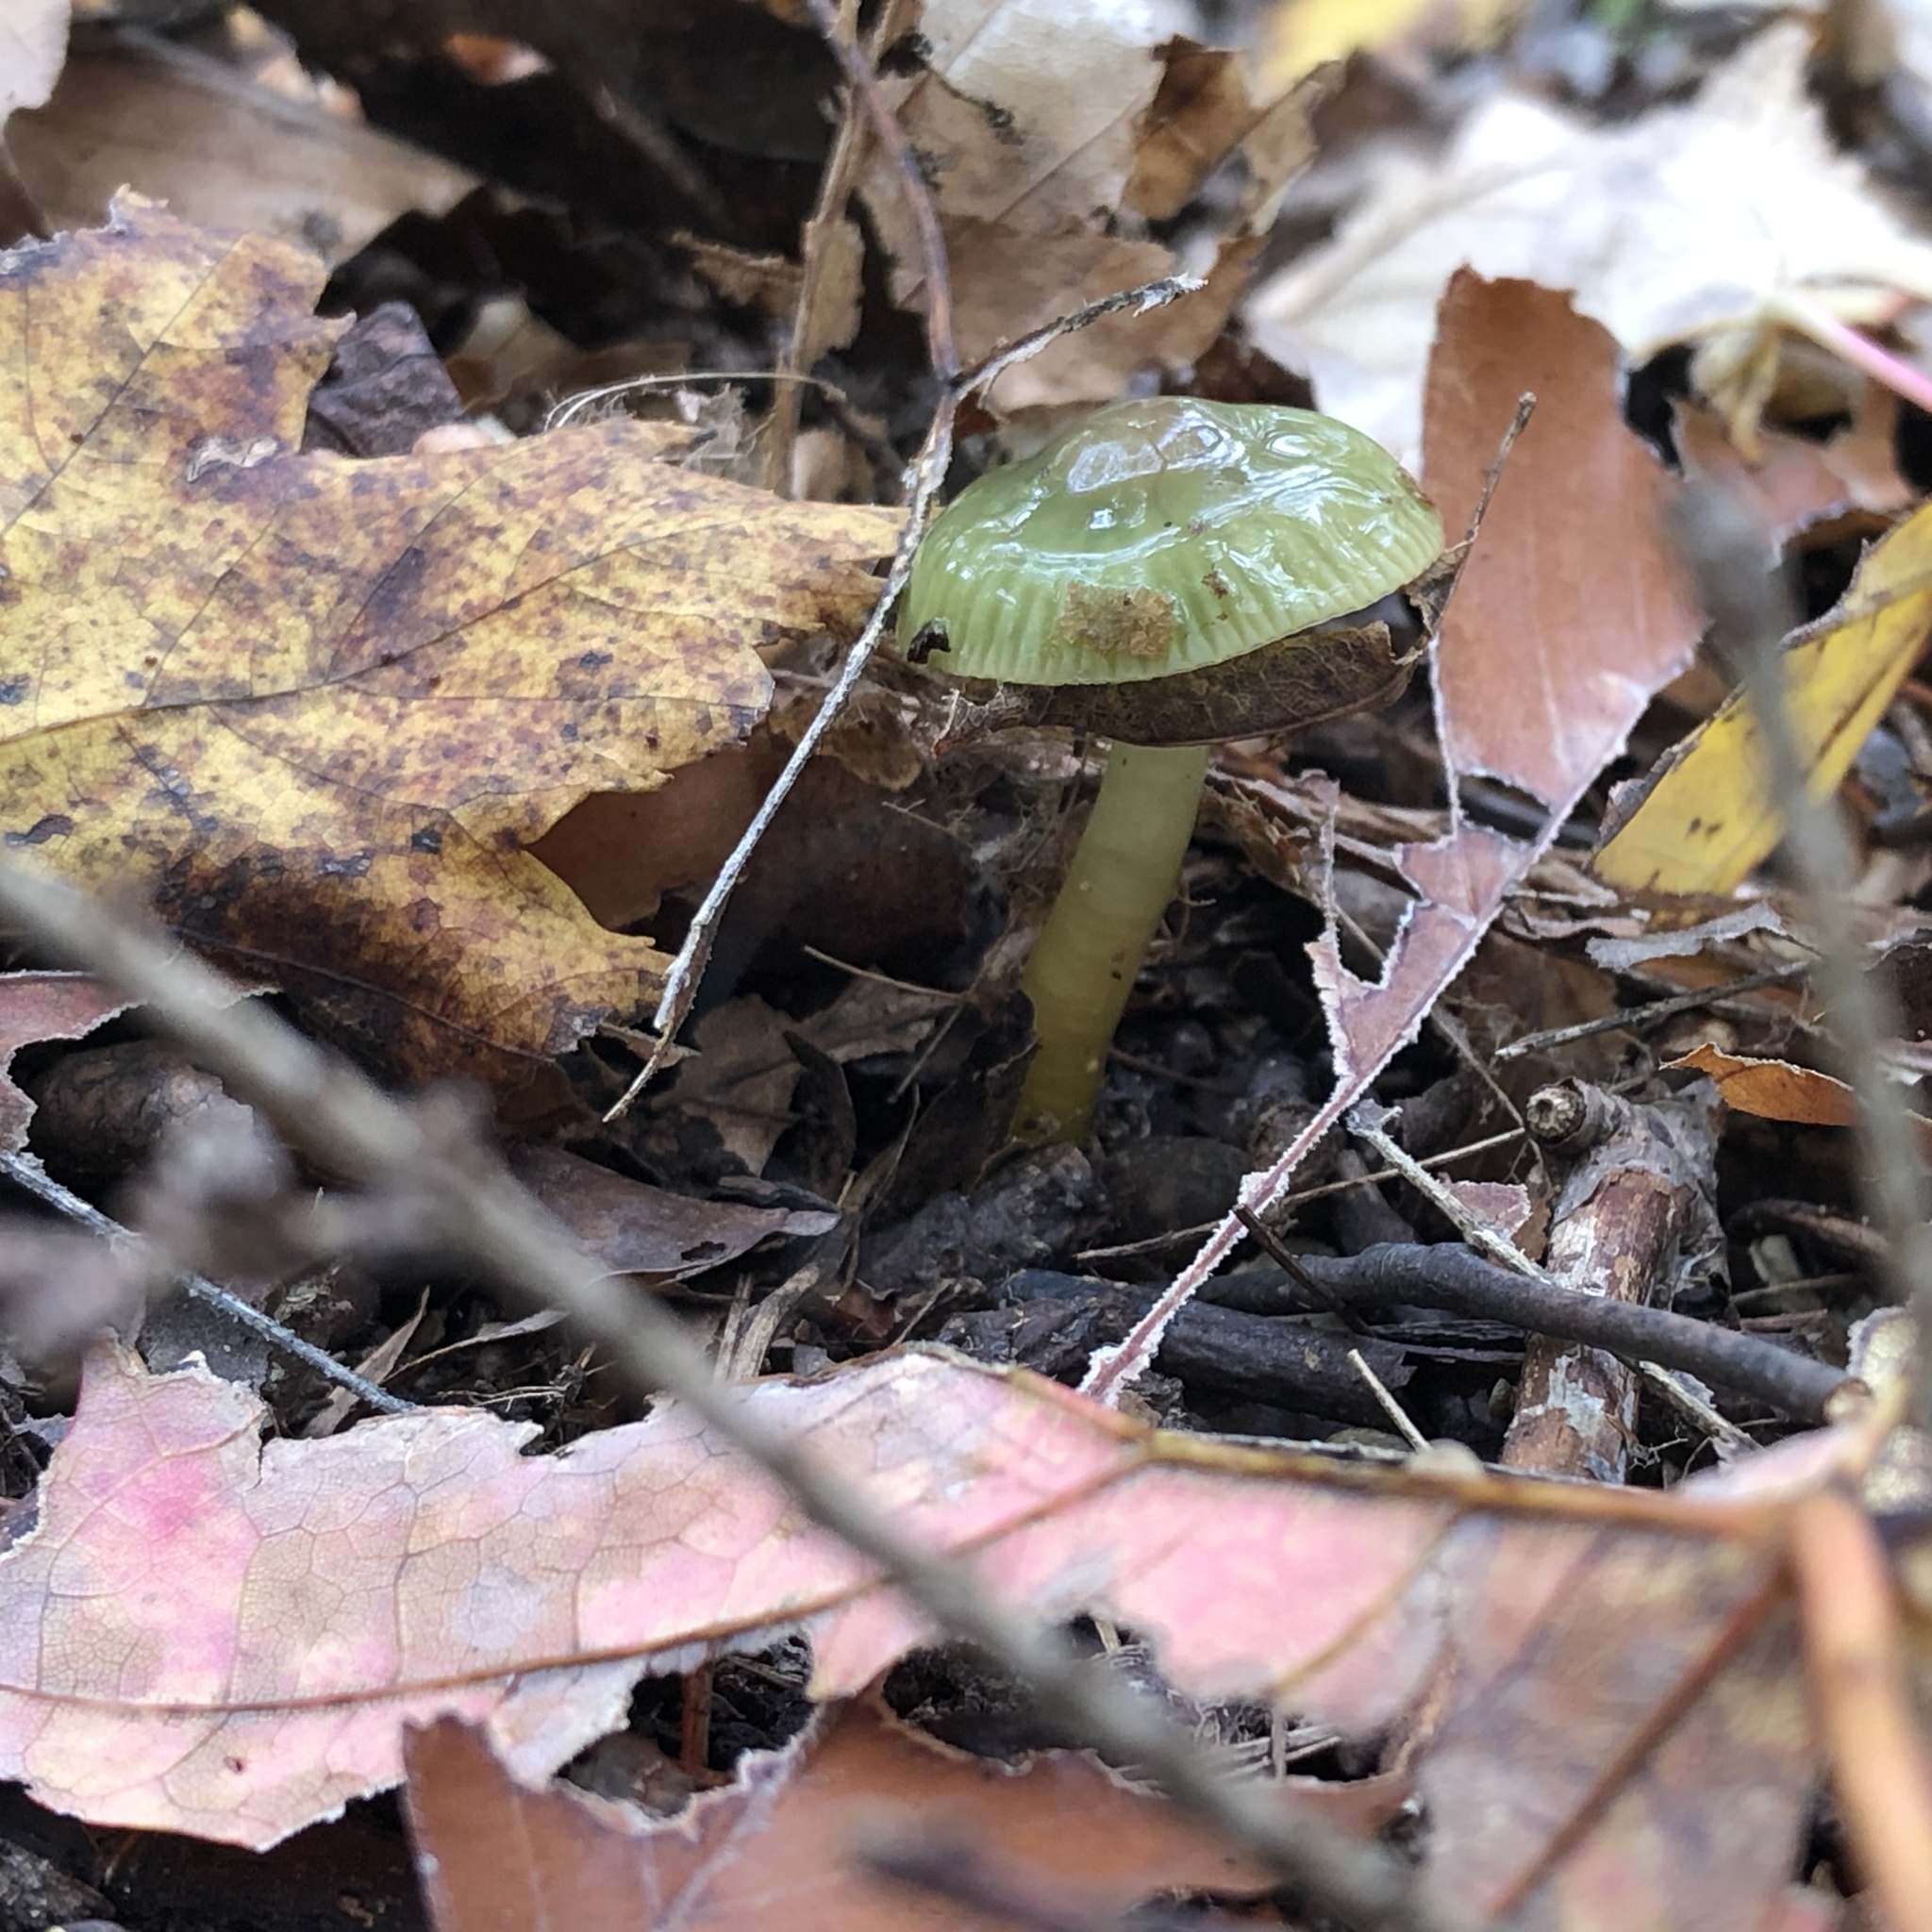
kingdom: Fungi
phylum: Basidiomycota
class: Agaricomycetes
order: Agaricales
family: Hygrophoraceae
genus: Gliophorus
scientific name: Gliophorus psittacinus
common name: Parrot wax-cap
